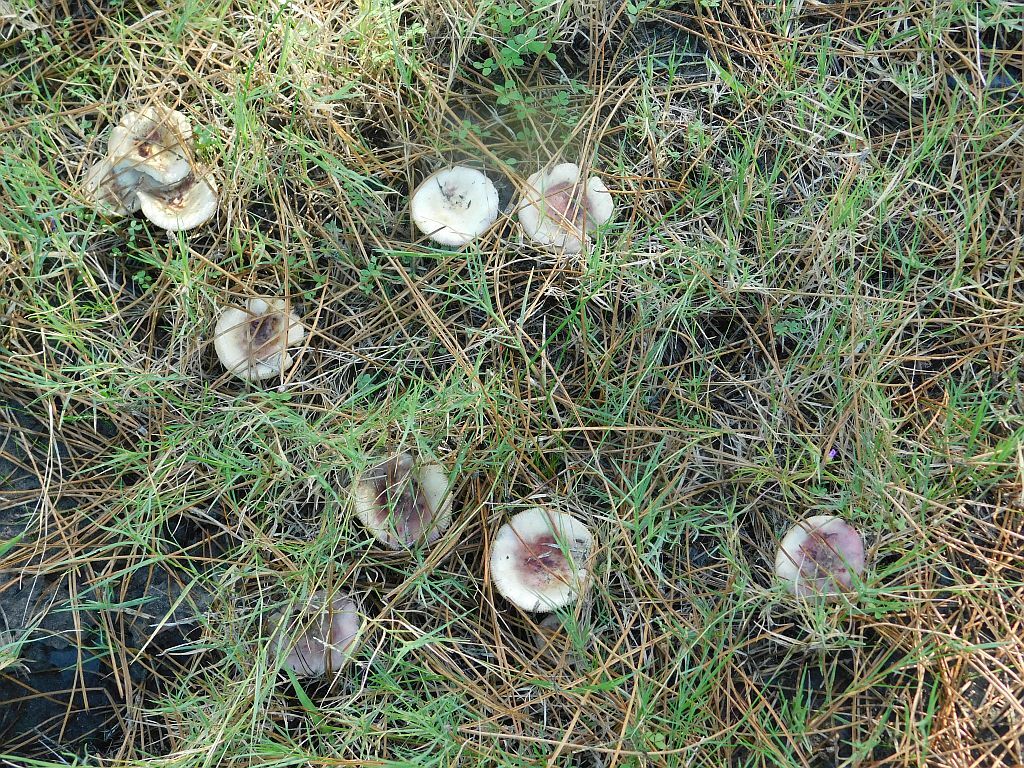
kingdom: Fungi
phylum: Basidiomycota
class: Agaricomycetes
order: Russulales
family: Russulaceae
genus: Russula
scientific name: Russula sardonia
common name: Primrose brittlegill
